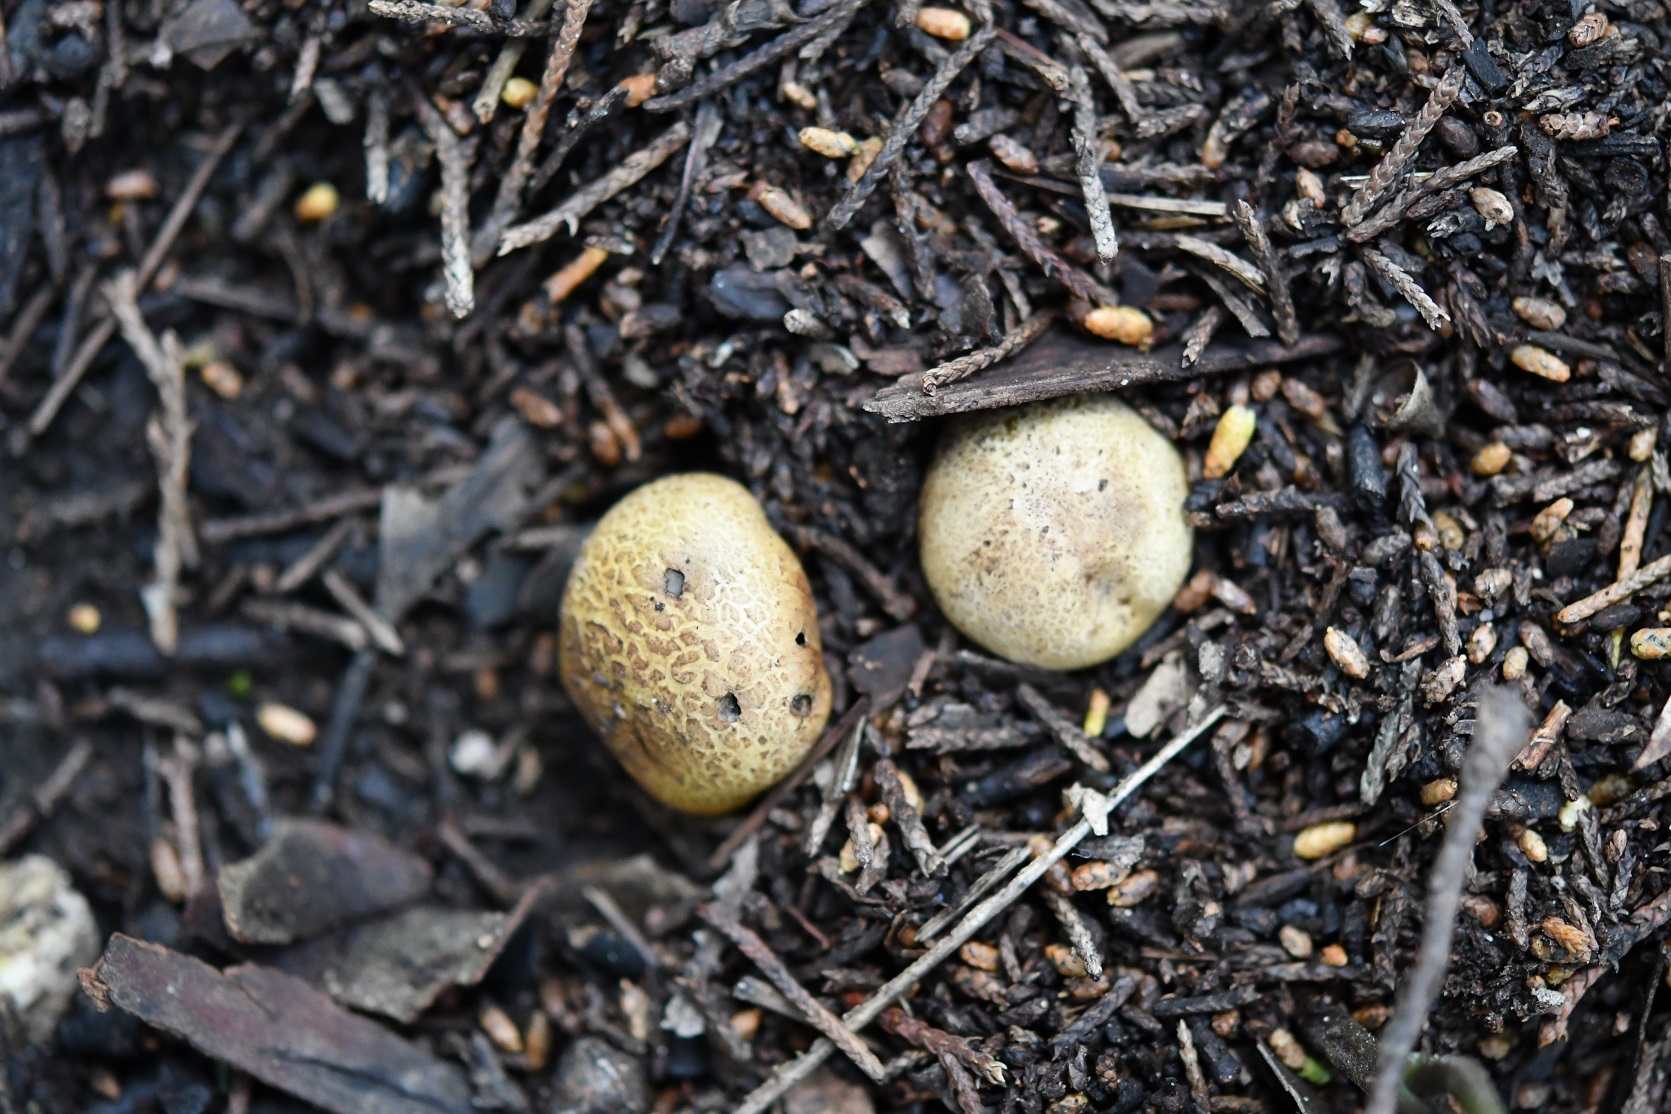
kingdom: Fungi
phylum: Basidiomycota
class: Agaricomycetes
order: Boletales
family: Sclerodermataceae
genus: Scleroderma
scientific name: Scleroderma areolatum
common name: Leopard earthball
